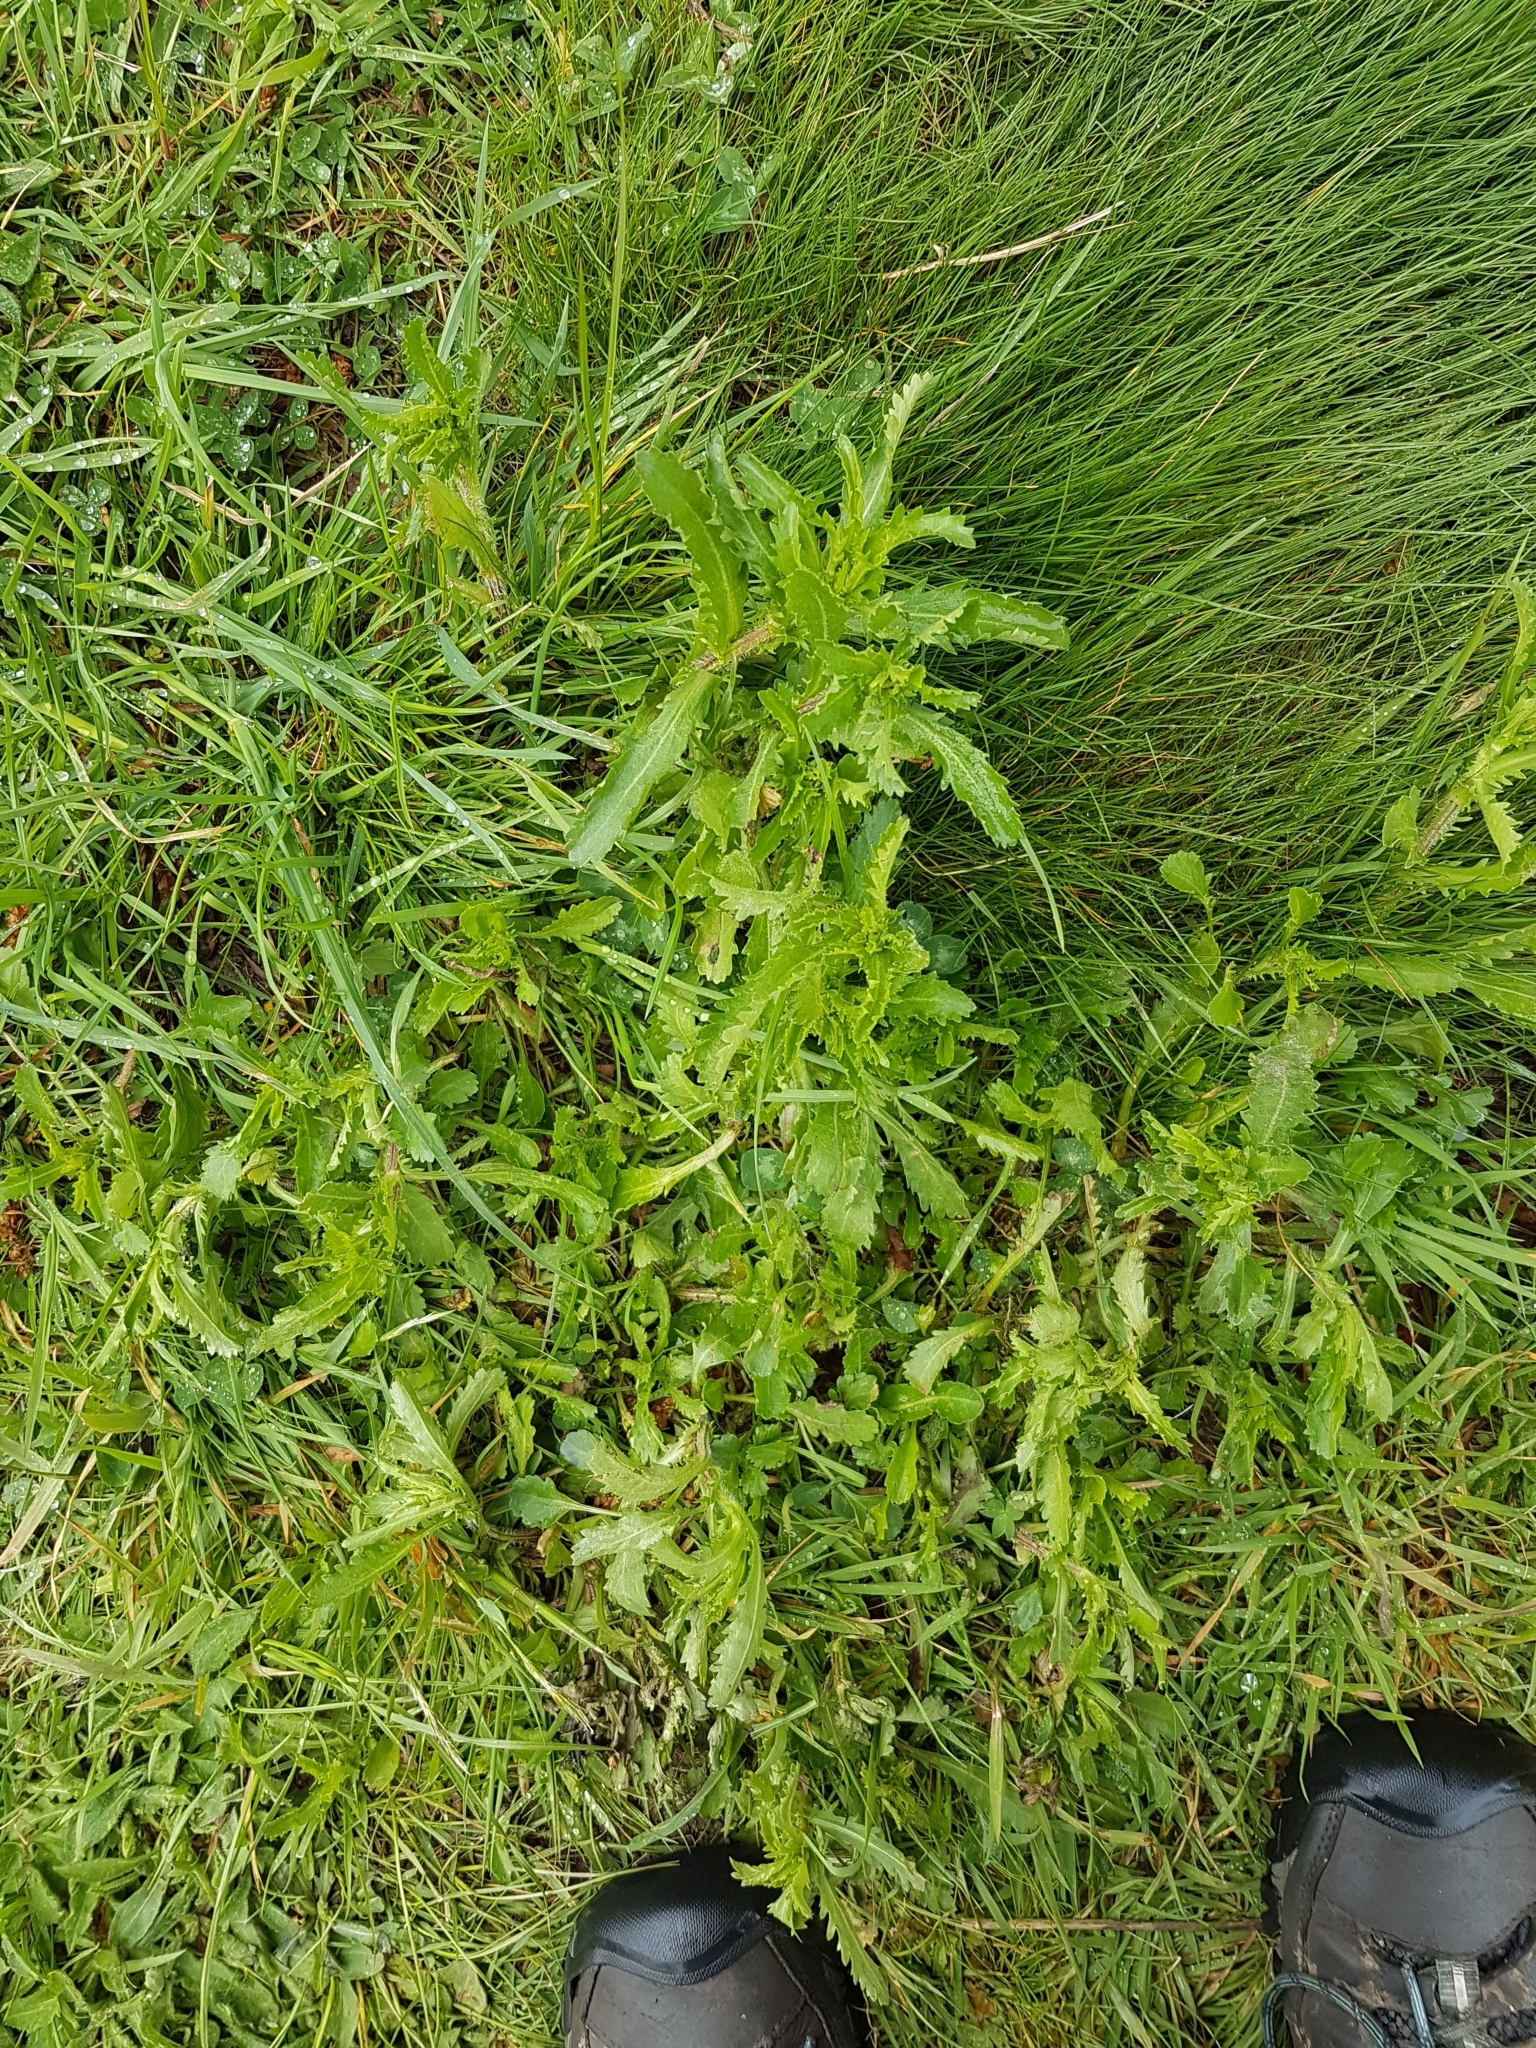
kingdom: Plantae
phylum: Tracheophyta
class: Magnoliopsida
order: Asterales
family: Asteraceae
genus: Leucanthemum
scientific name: Leucanthemum vulgare
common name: Oxeye daisy
